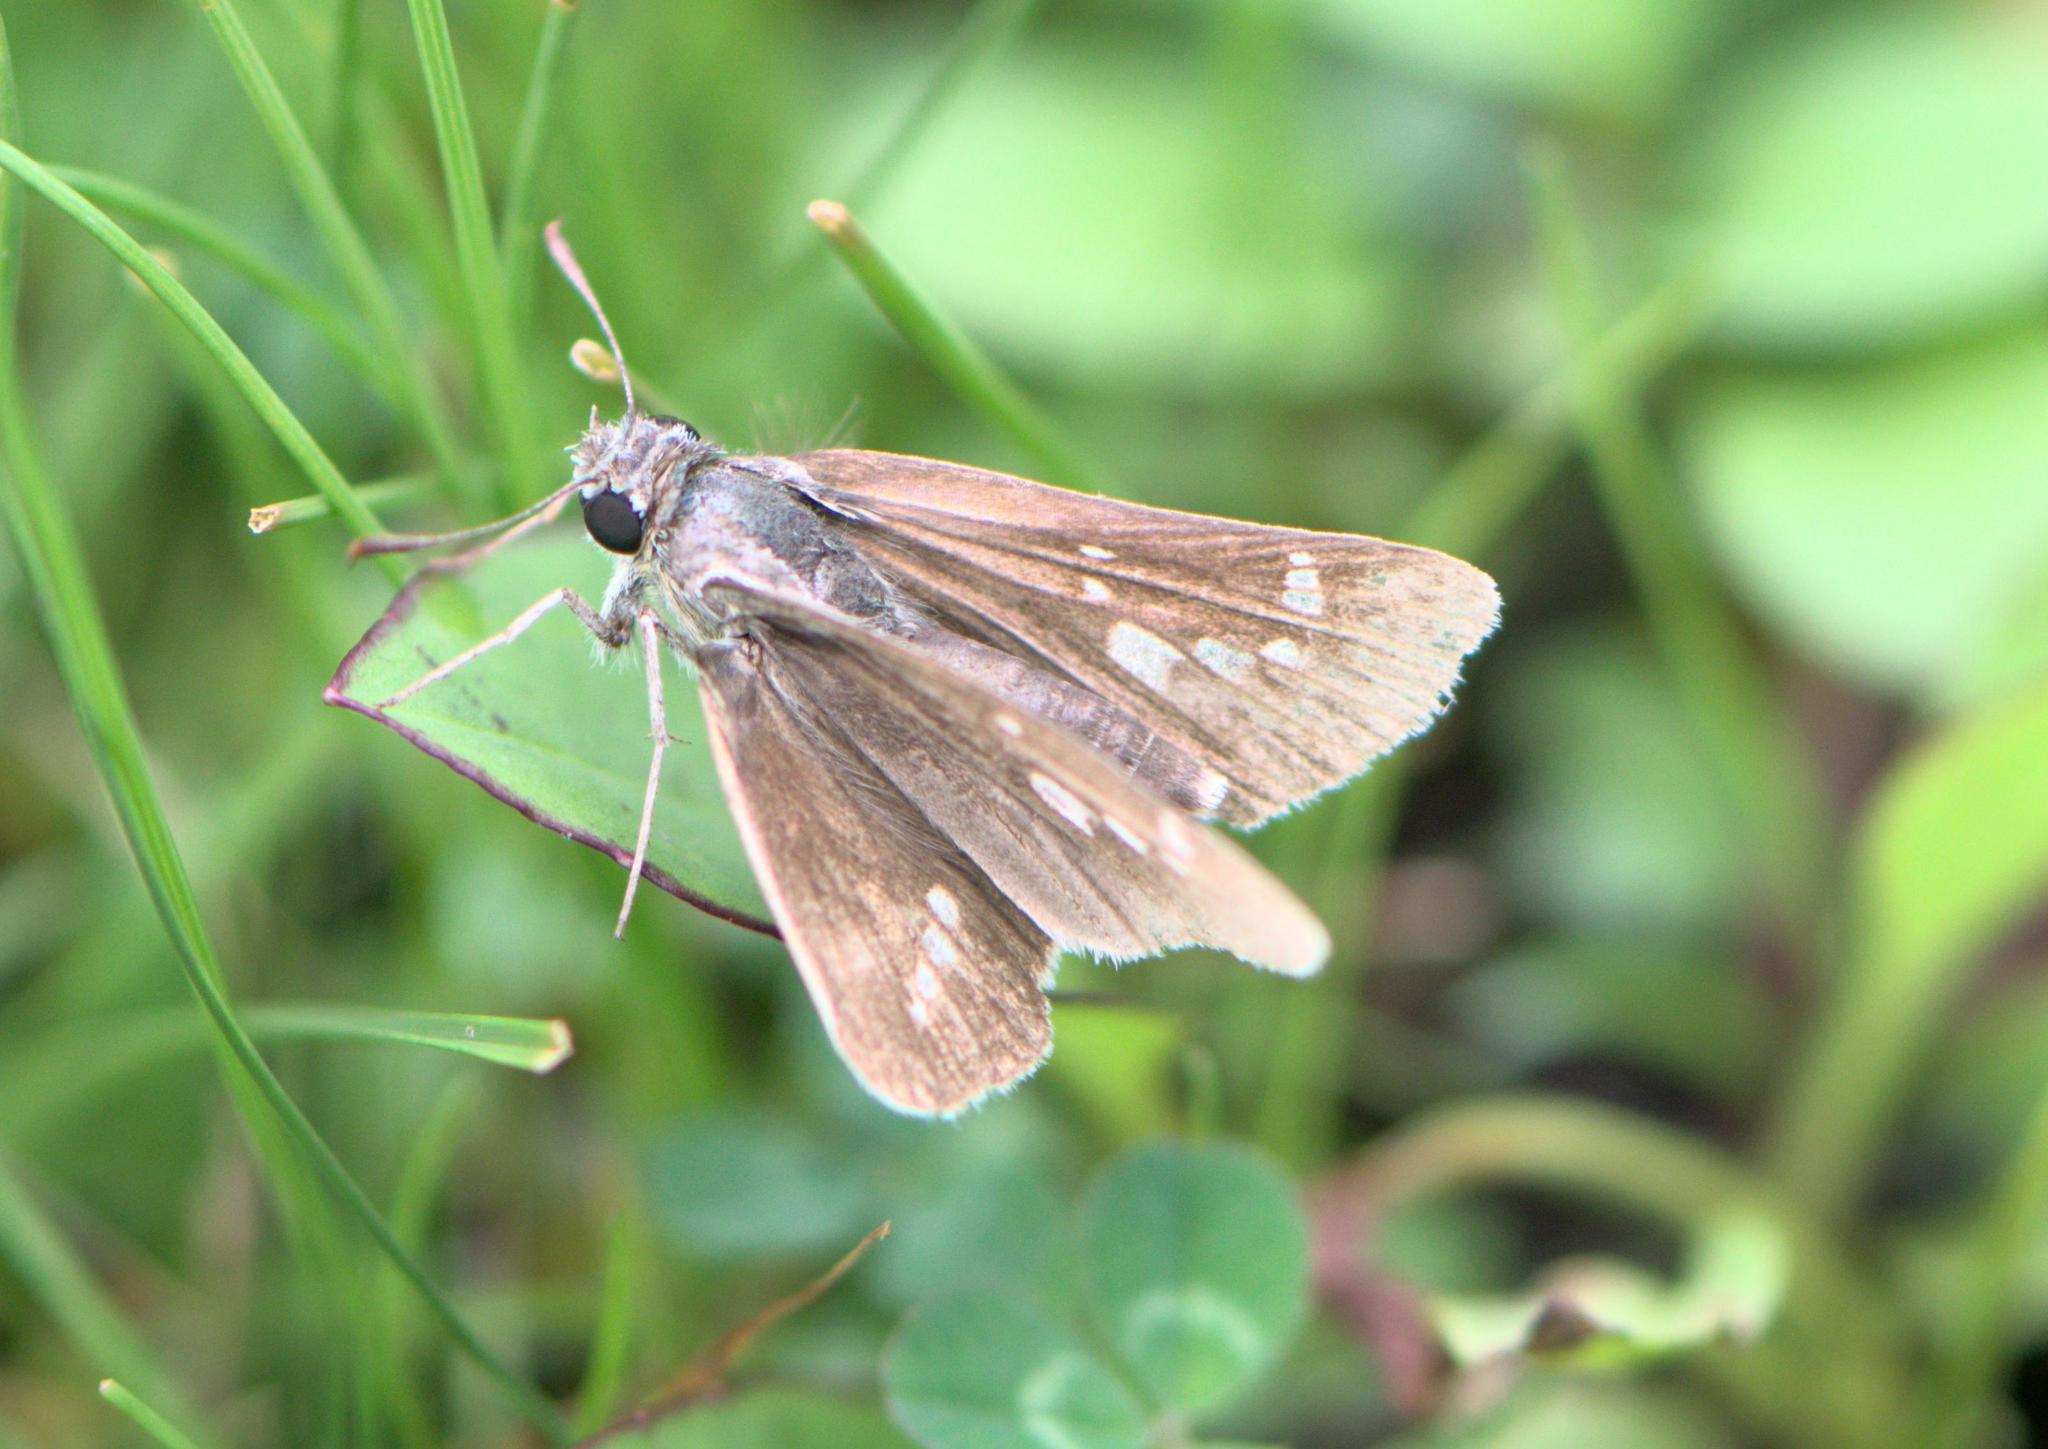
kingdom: Animalia
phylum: Arthropoda
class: Insecta
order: Lepidoptera
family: Hesperiidae
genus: Taractrocera
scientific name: Taractrocera danna
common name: Himalayan grass dart
